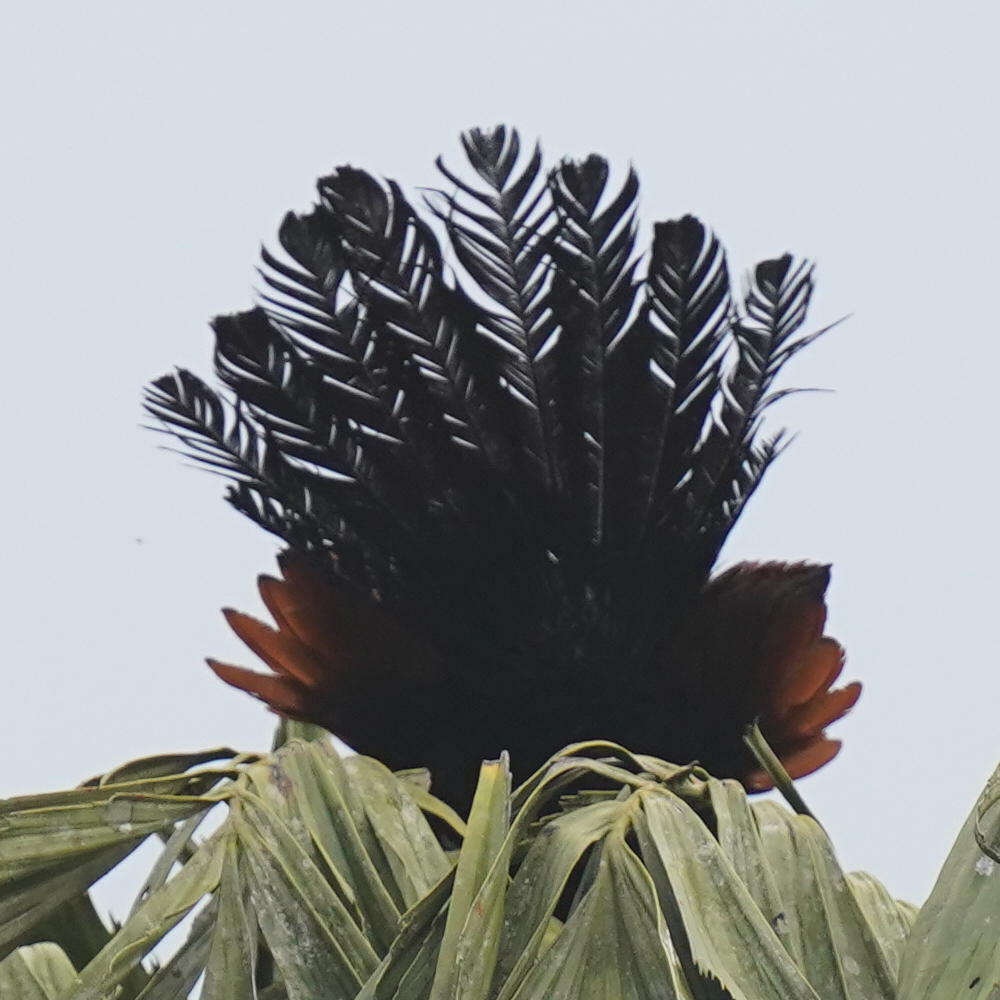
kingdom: Animalia
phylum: Chordata
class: Aves
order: Cuculiformes
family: Cuculidae
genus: Centropus
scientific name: Centropus sinensis
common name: Greater coucal
